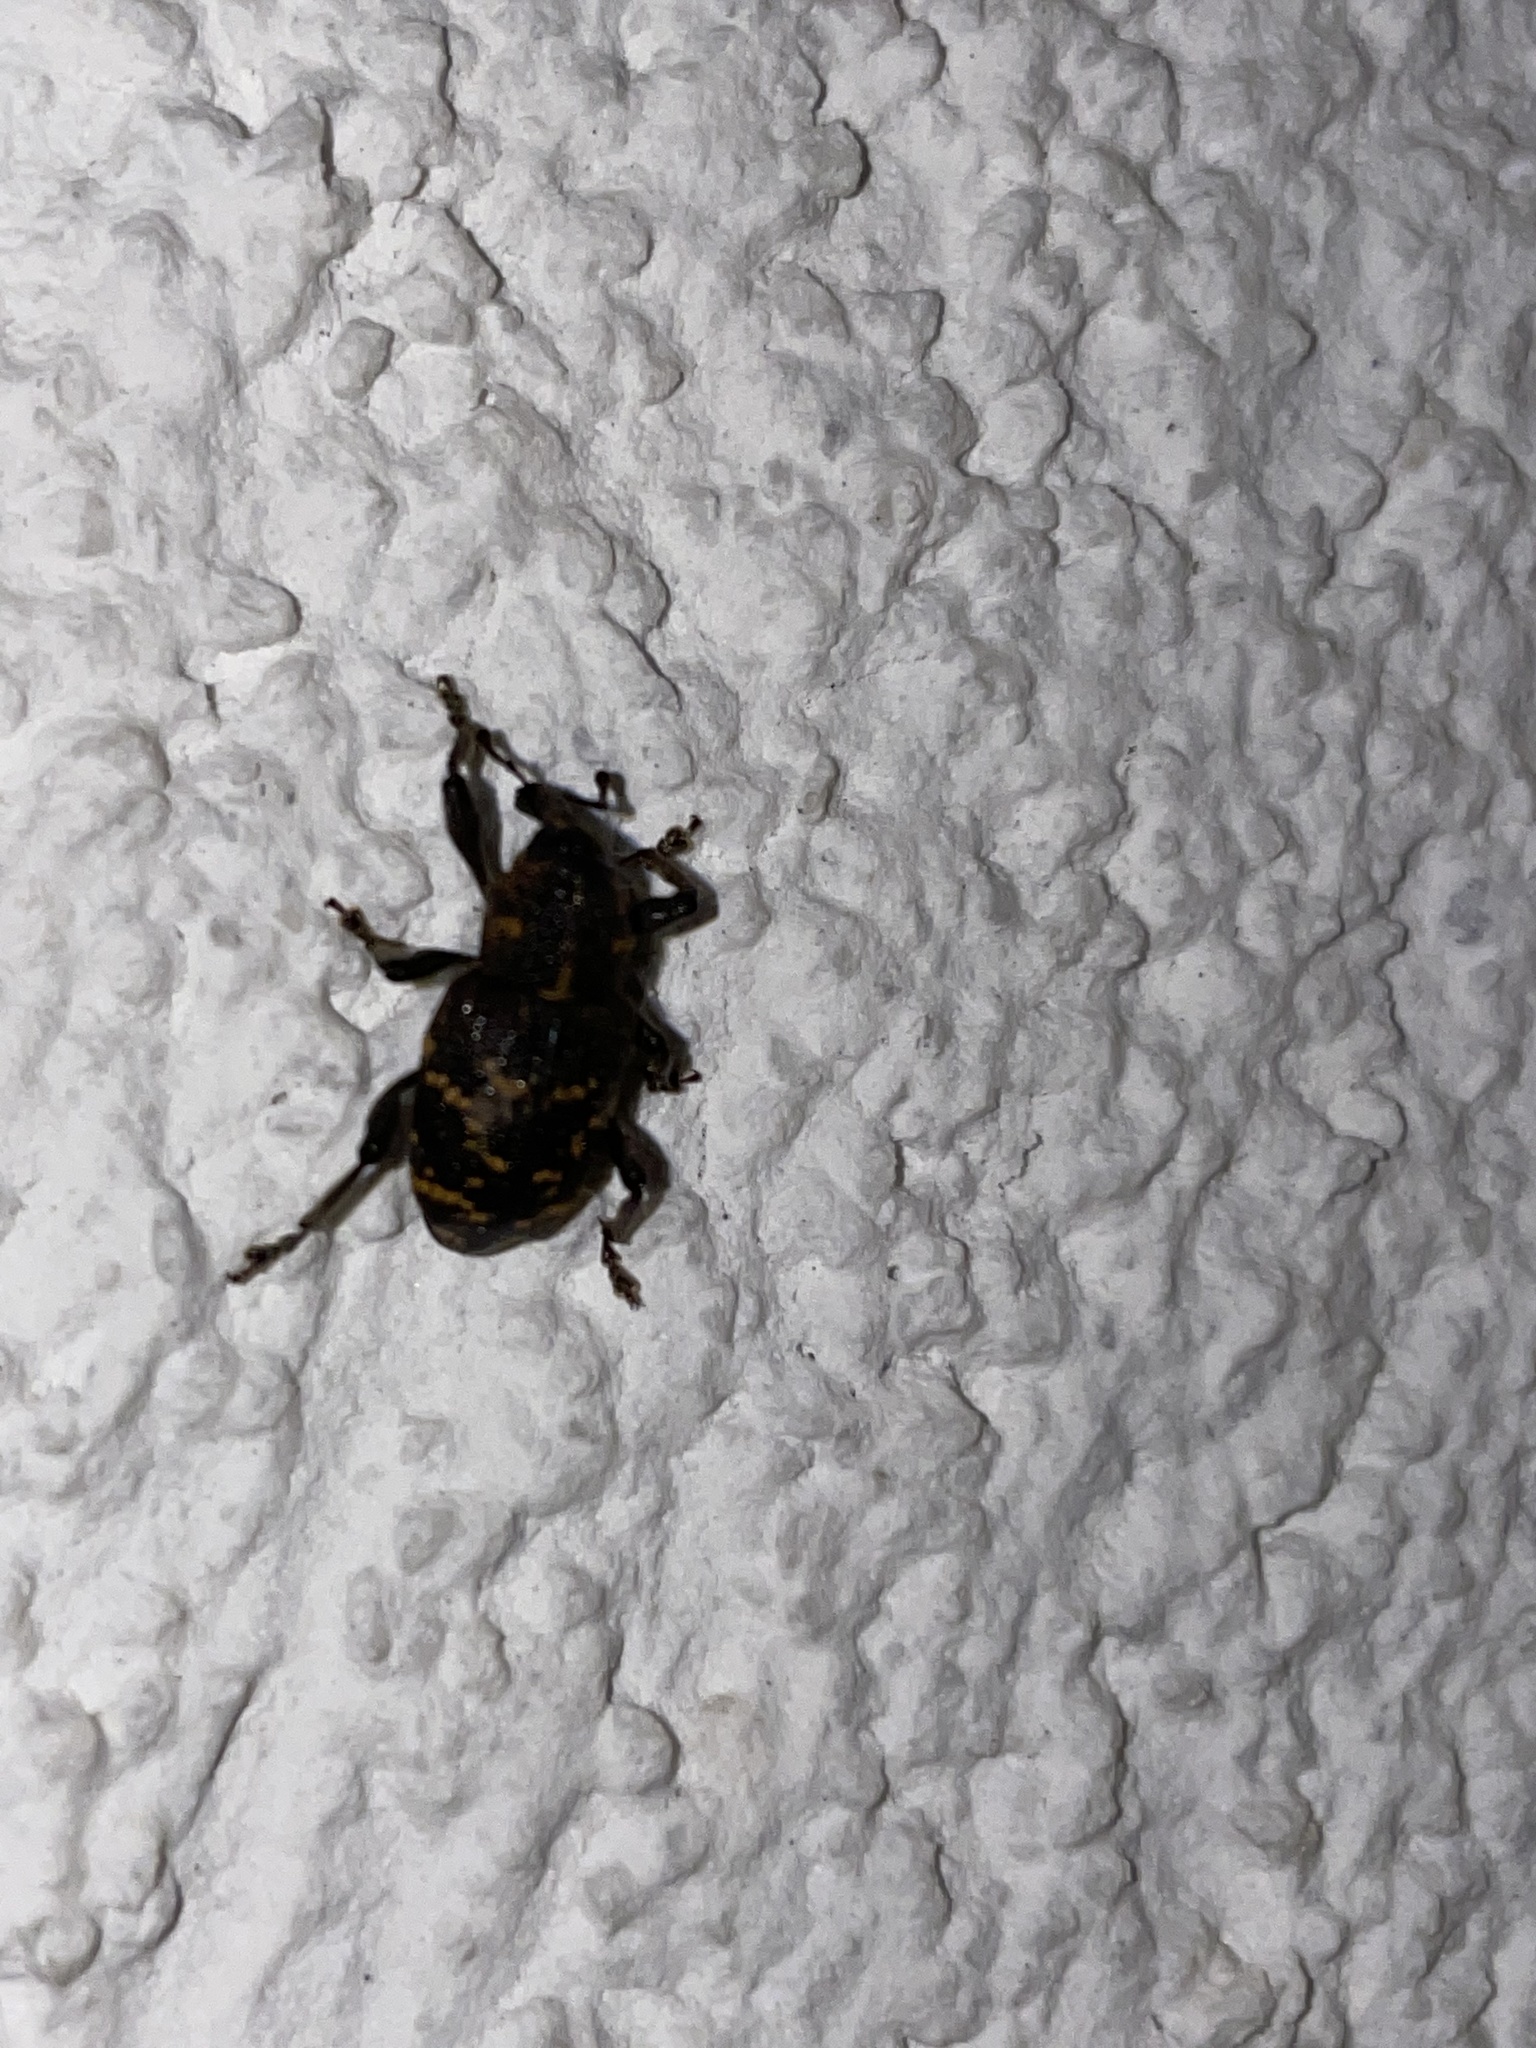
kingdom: Animalia
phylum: Arthropoda
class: Insecta
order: Coleoptera
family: Curculionidae
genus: Hylobius
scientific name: Hylobius abietis
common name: Large pine weevil
